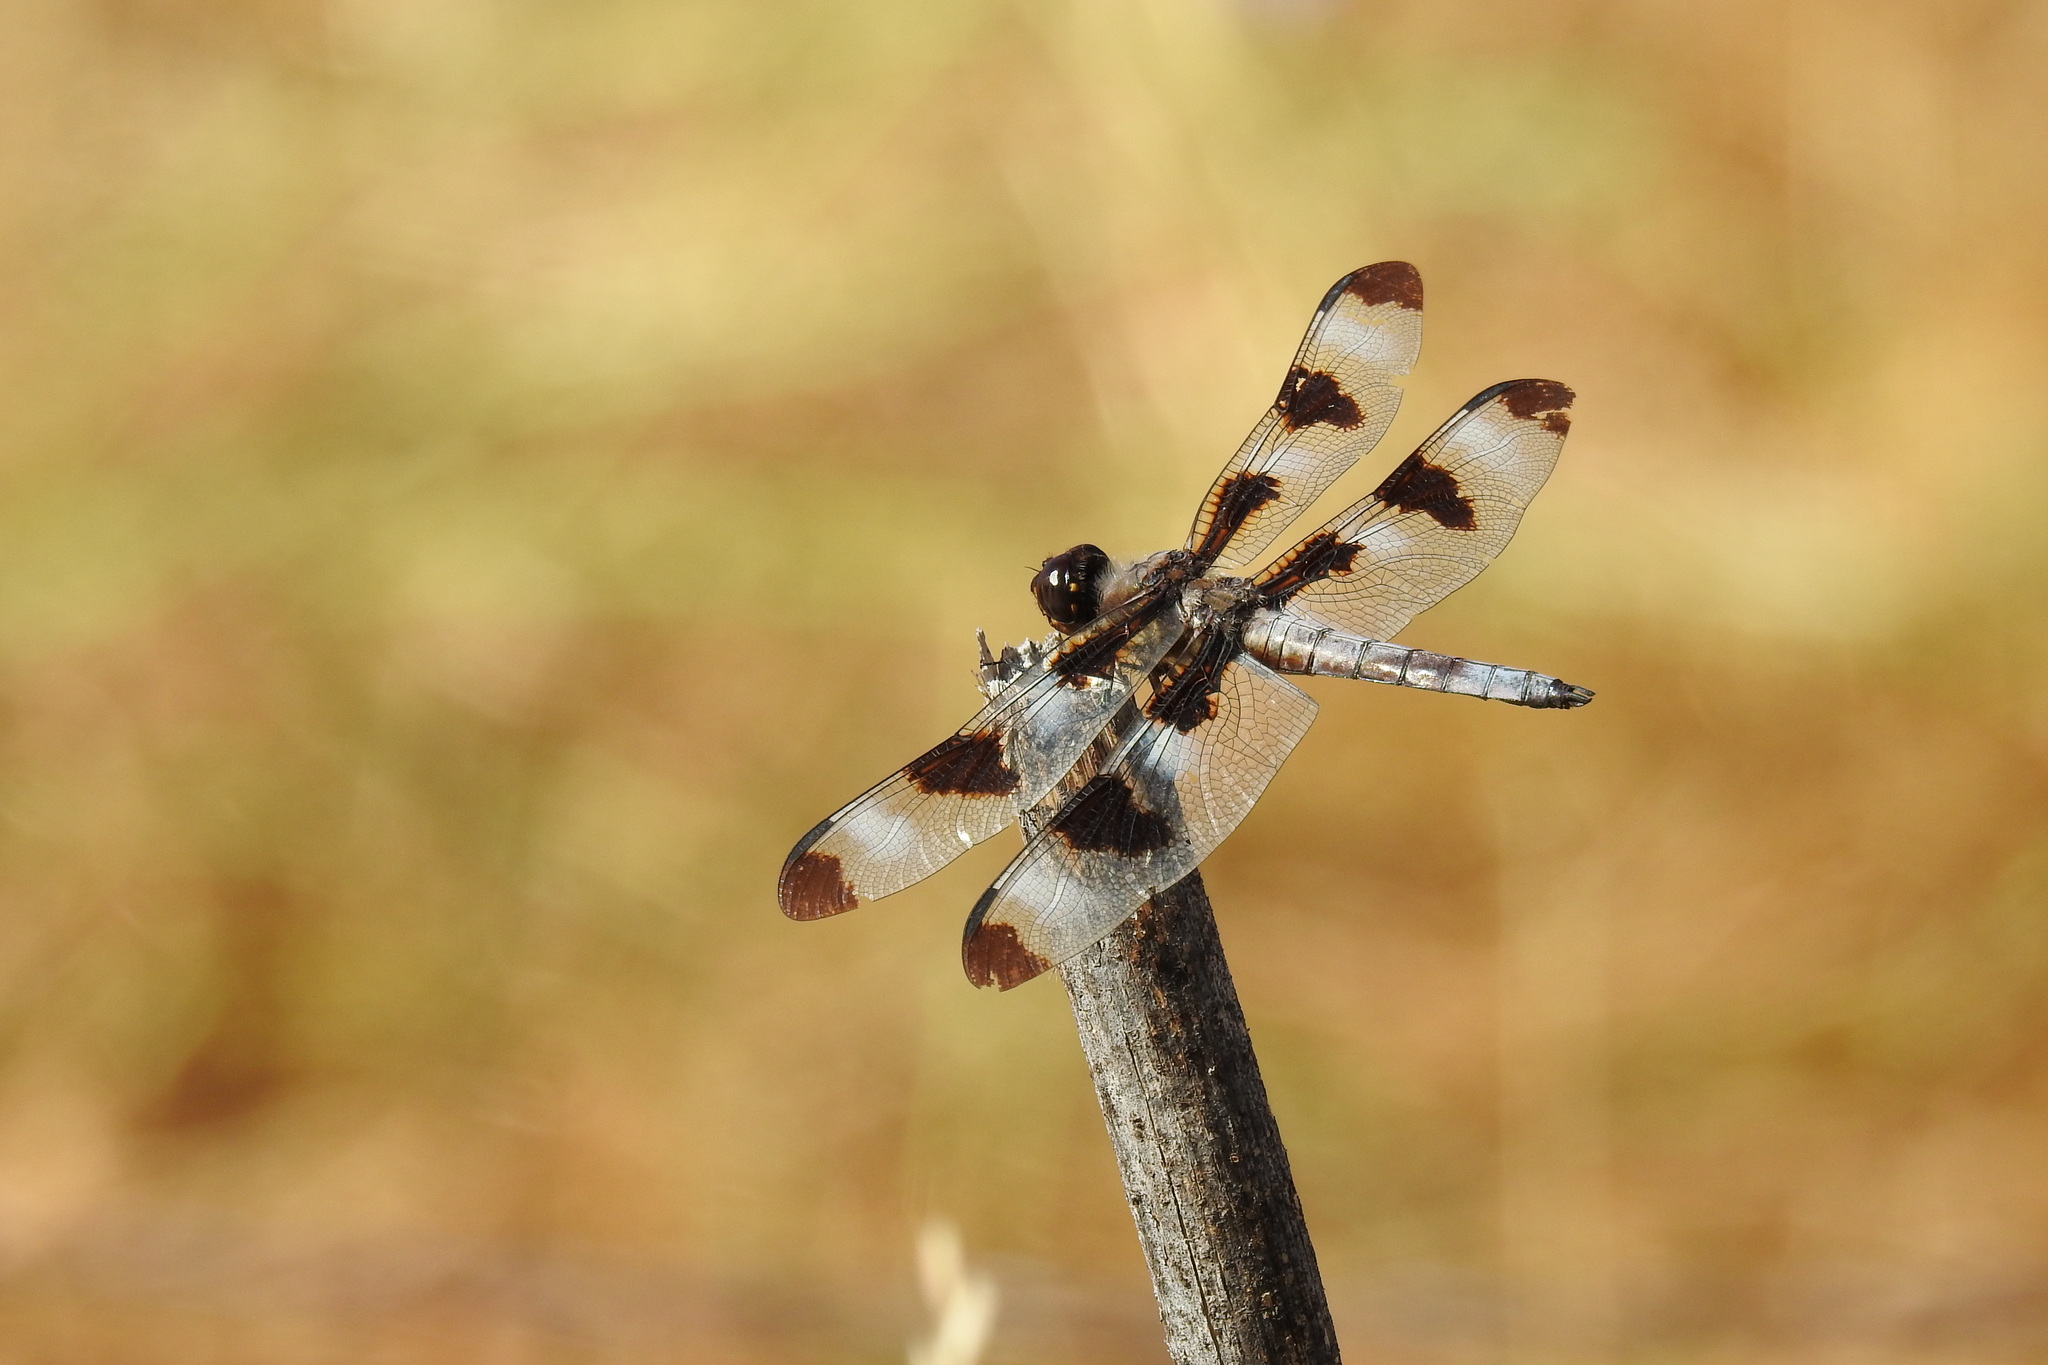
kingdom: Animalia
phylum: Arthropoda
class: Insecta
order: Odonata
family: Libellulidae
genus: Libellula
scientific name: Libellula pulchella
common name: Twelve-spotted skimmer
